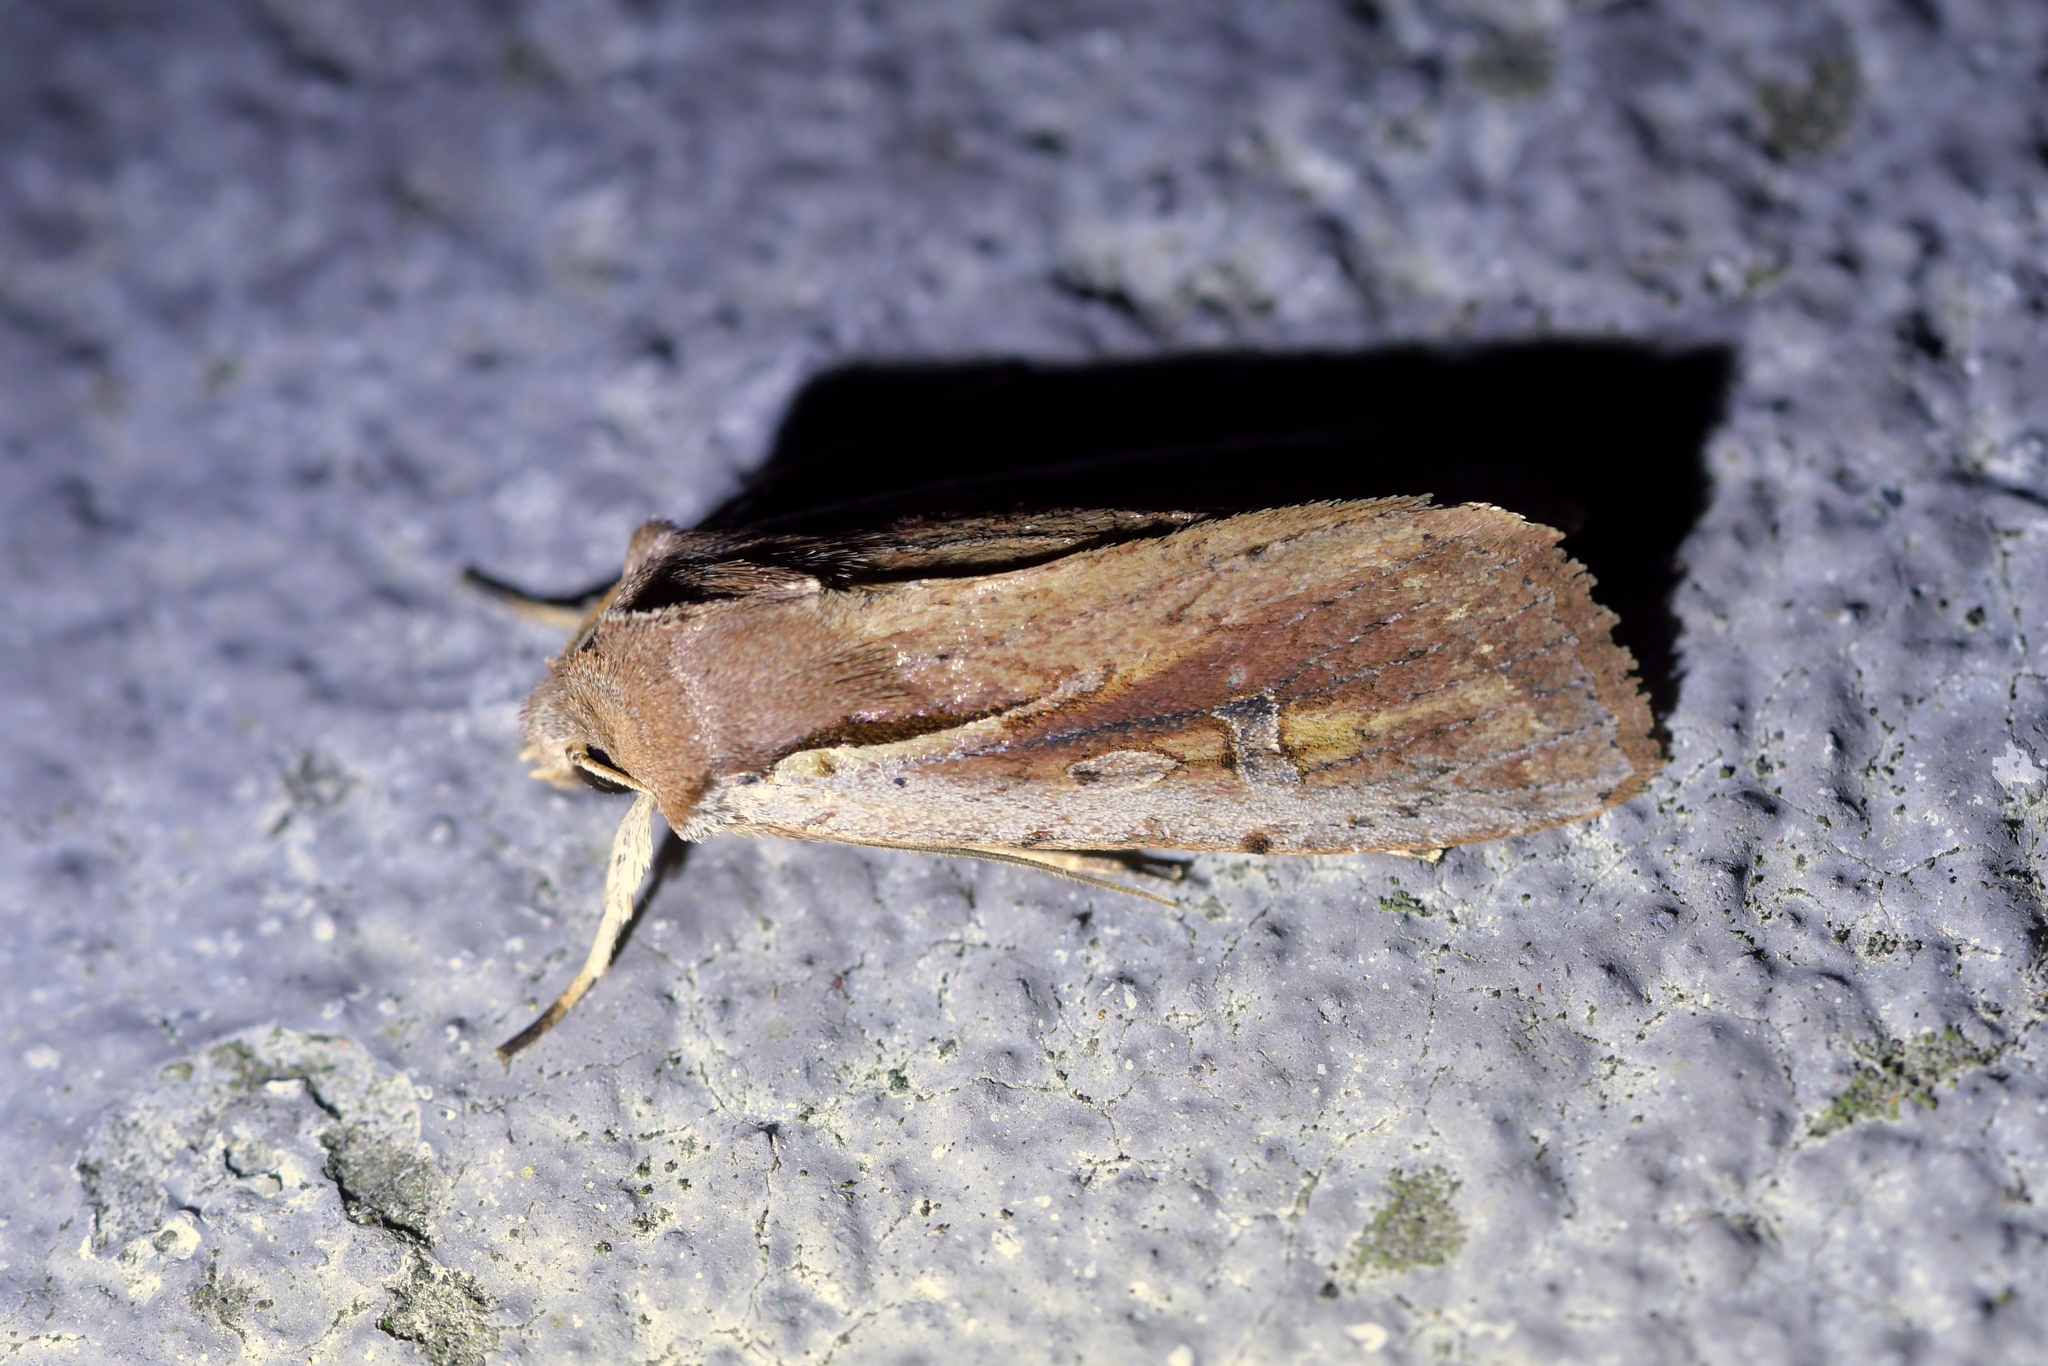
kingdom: Animalia
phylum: Arthropoda
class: Insecta
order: Lepidoptera
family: Noctuidae
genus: Ichneutica
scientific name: Ichneutica atristriga
